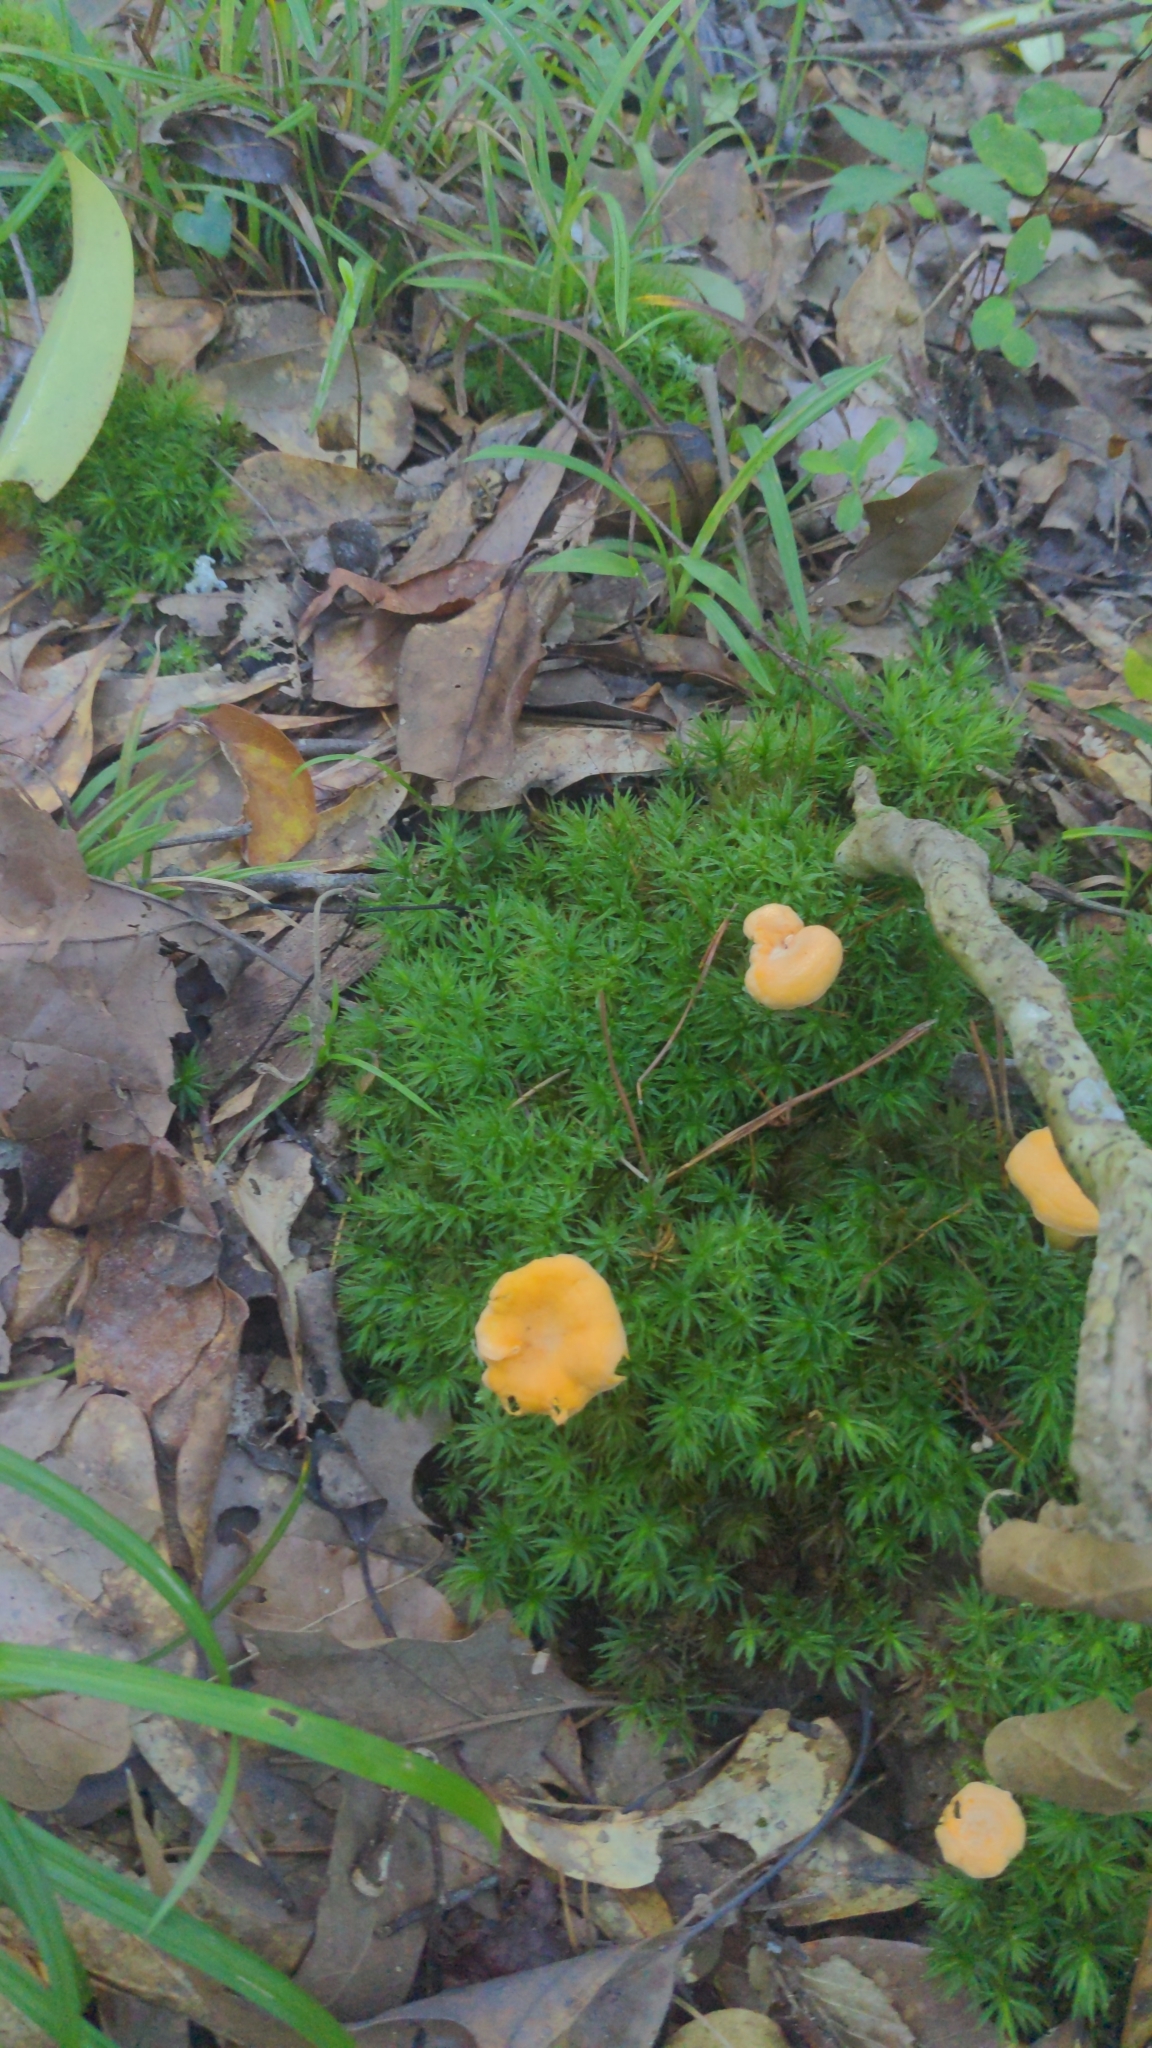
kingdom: Fungi
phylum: Basidiomycota
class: Agaricomycetes
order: Cantharellales
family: Hydnaceae
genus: Cantharellus
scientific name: Cantharellus minor
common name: Small chanterelle
